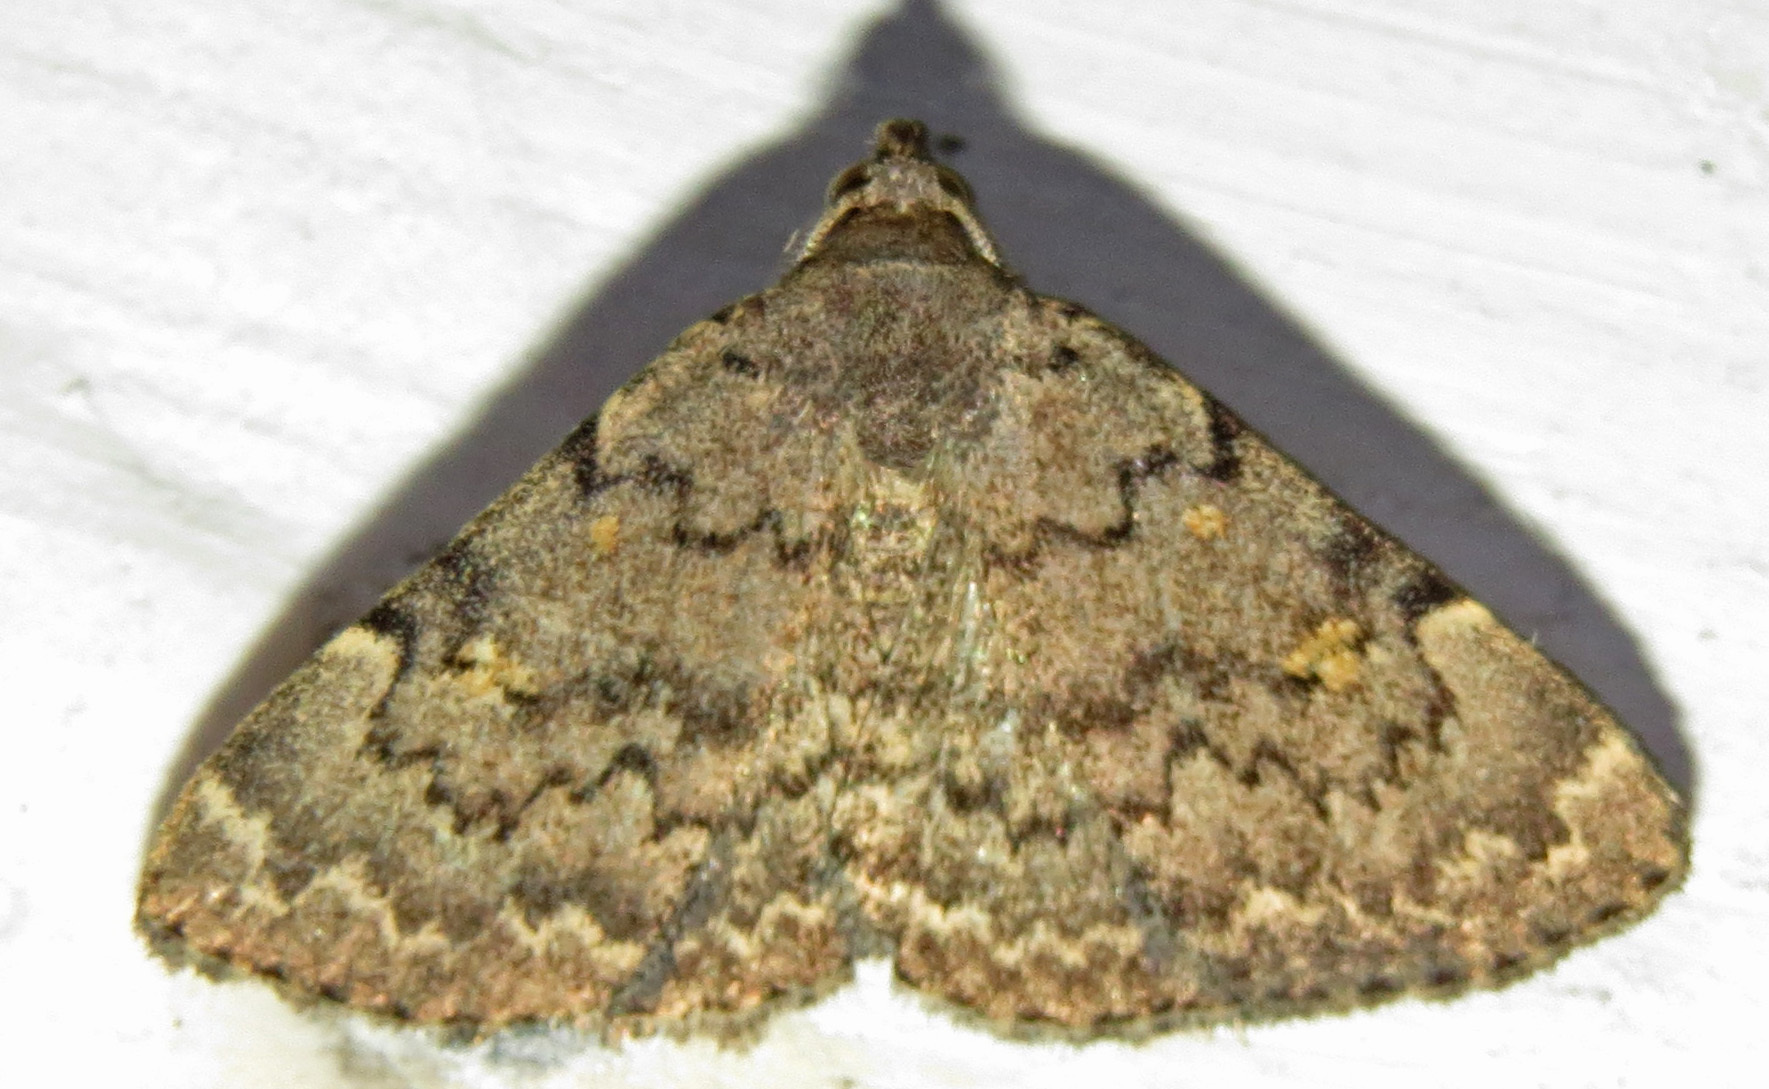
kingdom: Animalia
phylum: Arthropoda
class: Insecta
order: Lepidoptera
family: Erebidae
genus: Idia
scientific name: Idia aemula
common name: Common idia moth
